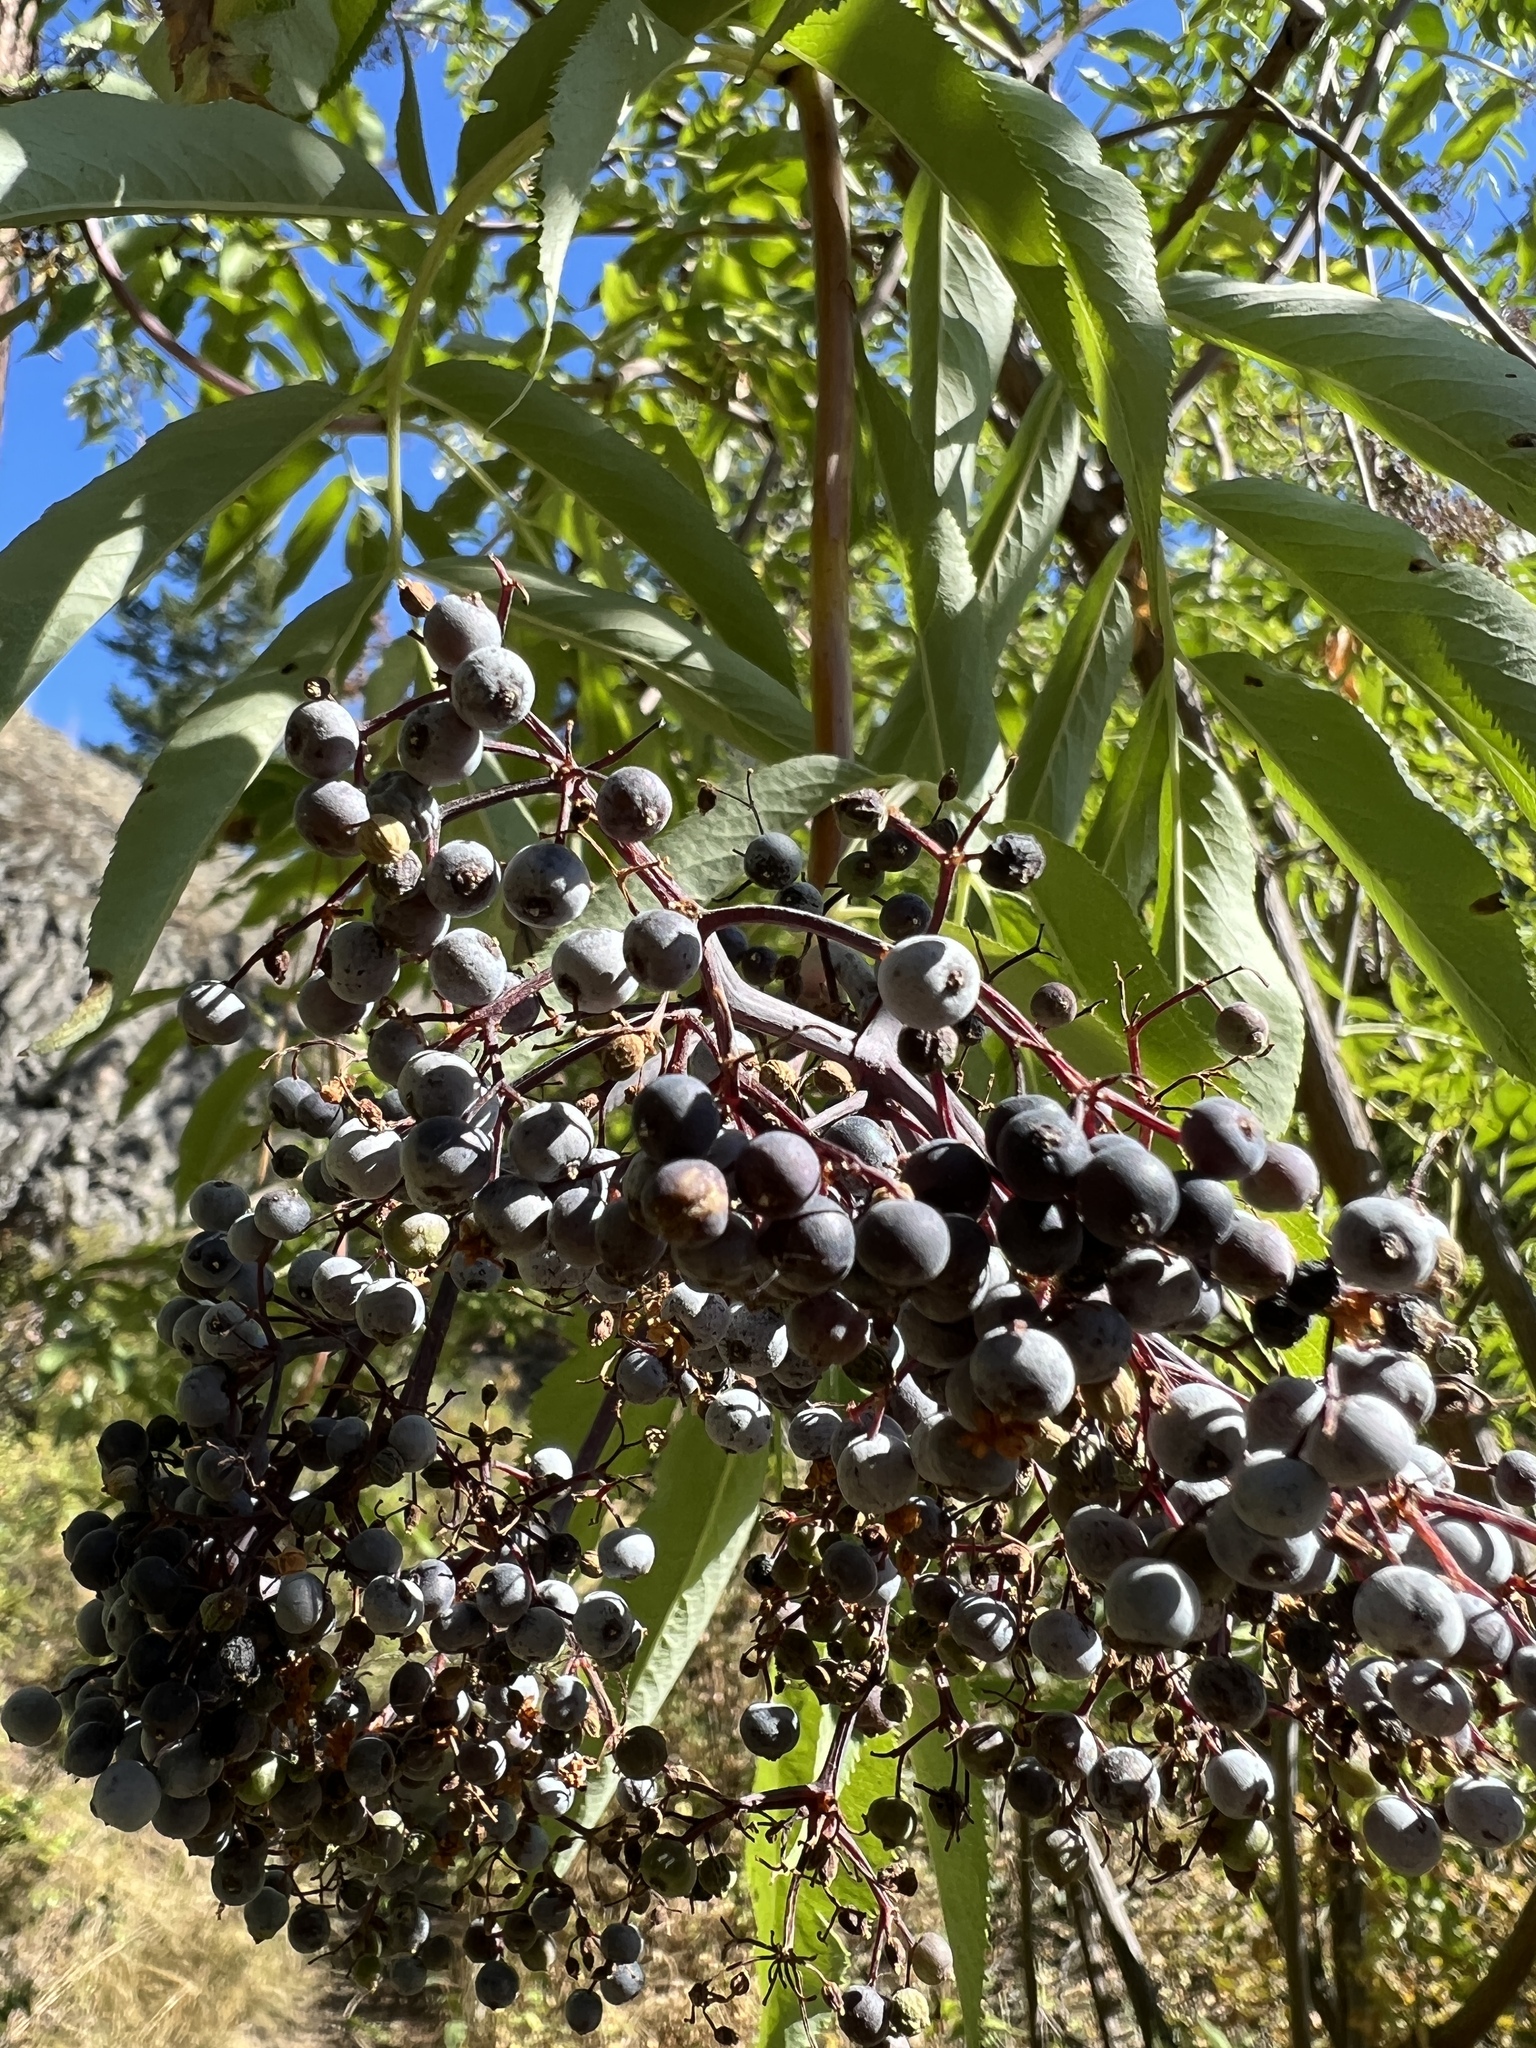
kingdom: Plantae
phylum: Tracheophyta
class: Magnoliopsida
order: Dipsacales
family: Viburnaceae
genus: Sambucus
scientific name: Sambucus cerulea
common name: Blue elder
